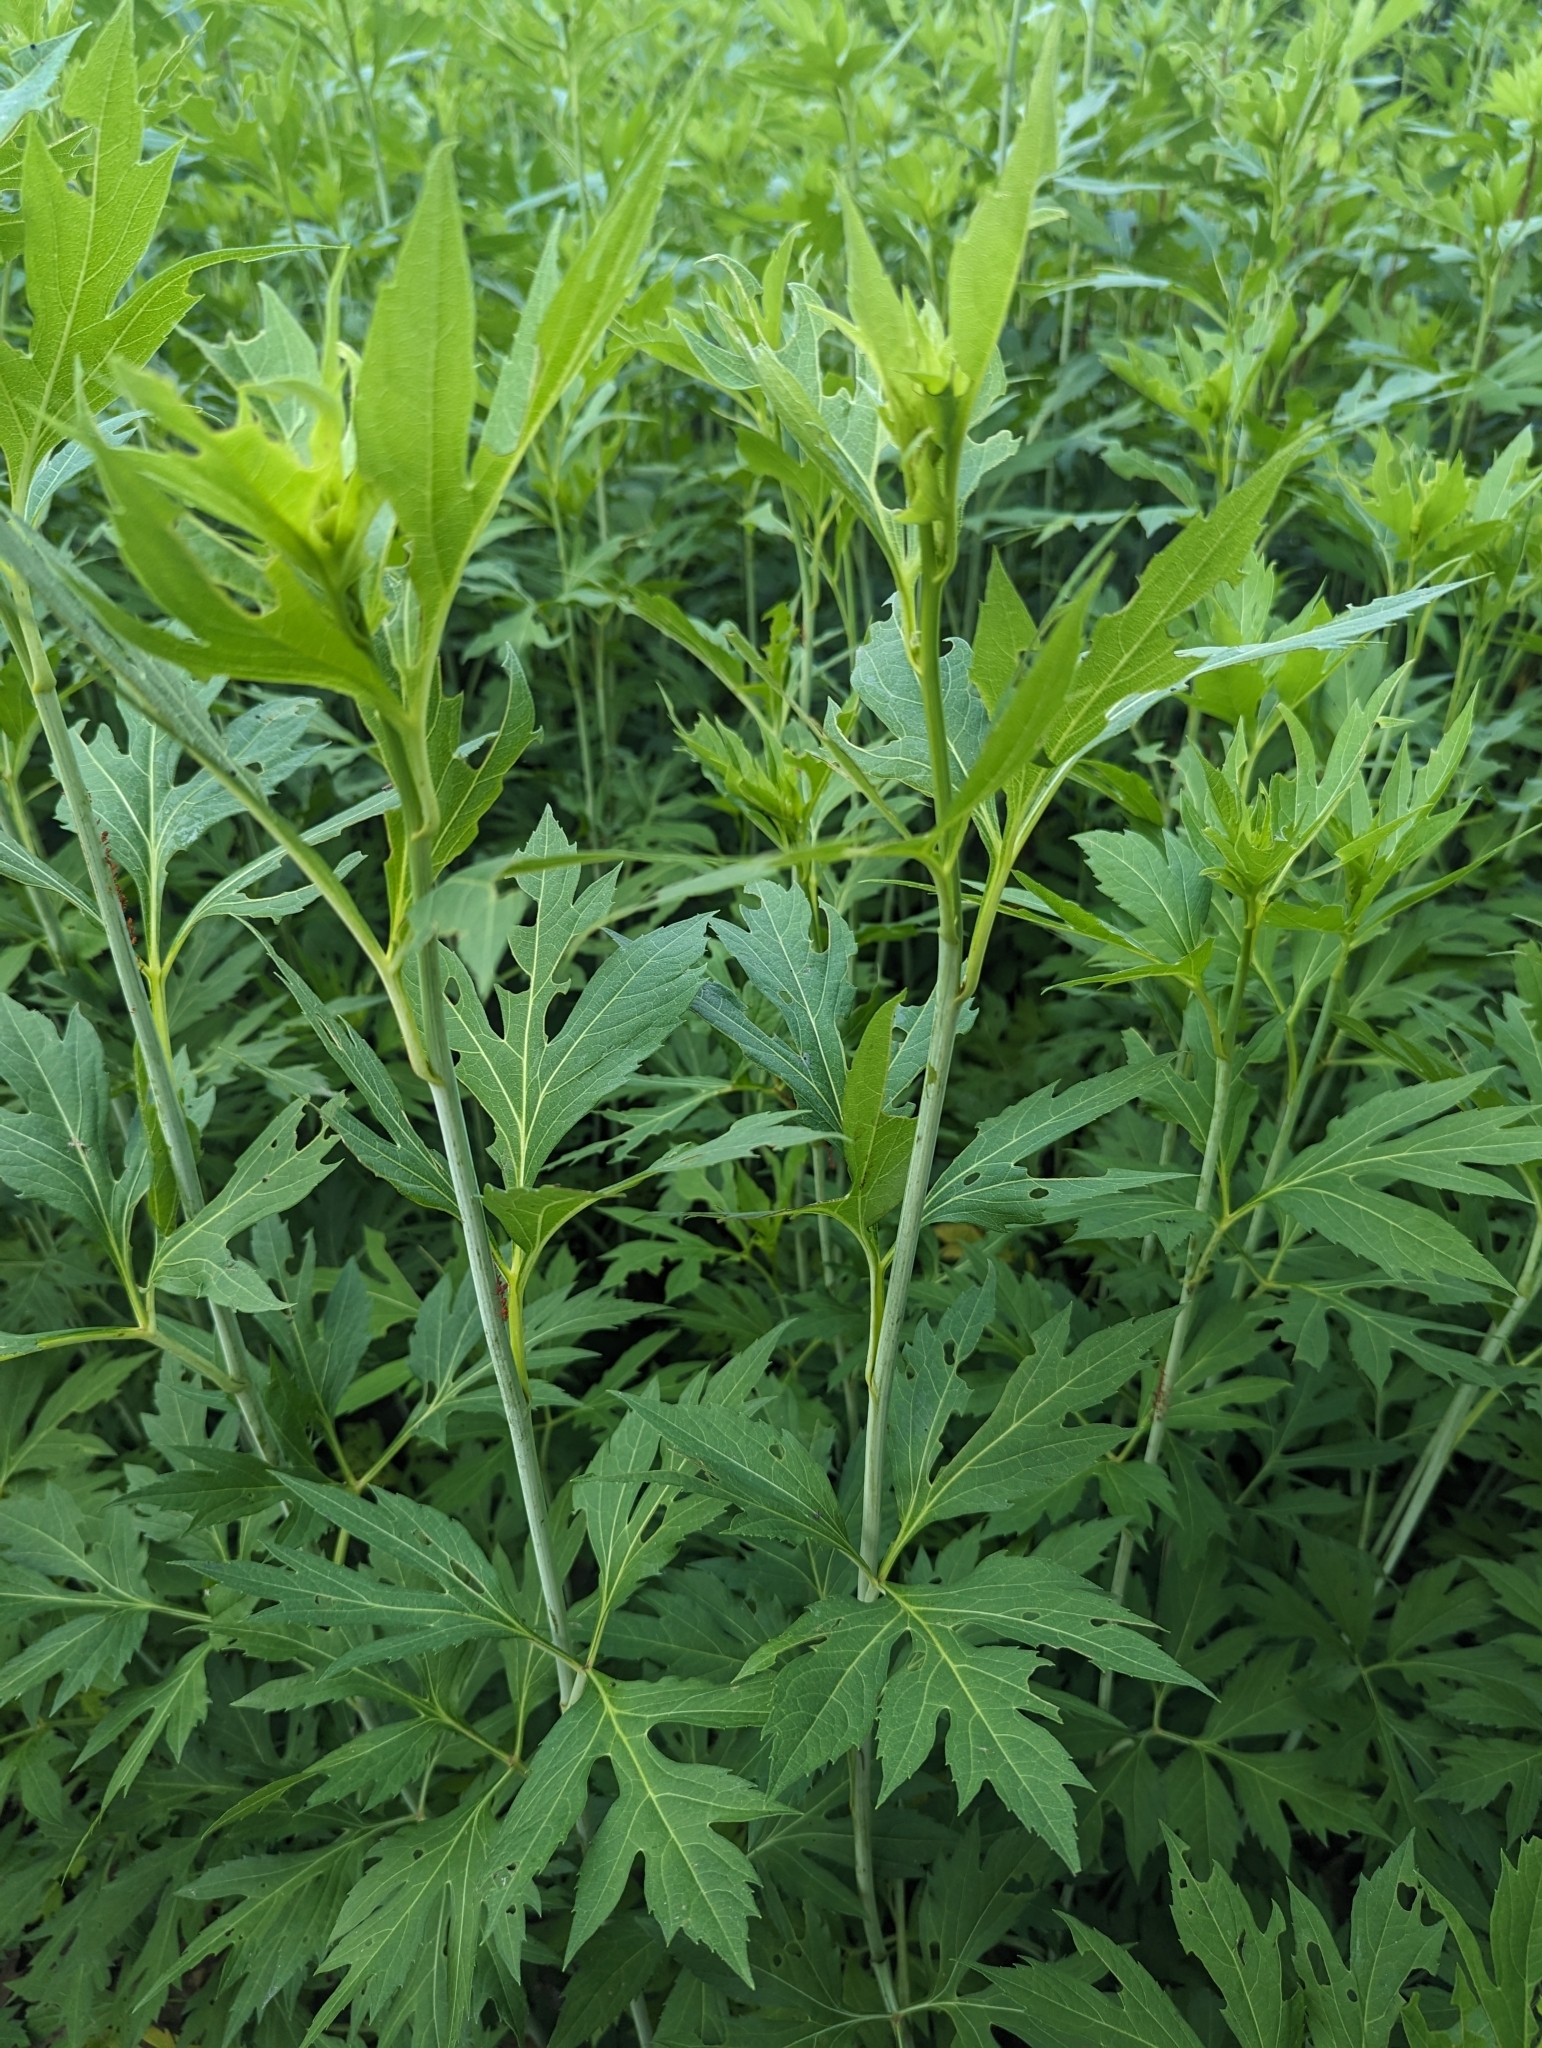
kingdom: Plantae
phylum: Tracheophyta
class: Magnoliopsida
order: Asterales
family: Asteraceae
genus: Rudbeckia
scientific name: Rudbeckia laciniata
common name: Coneflower
